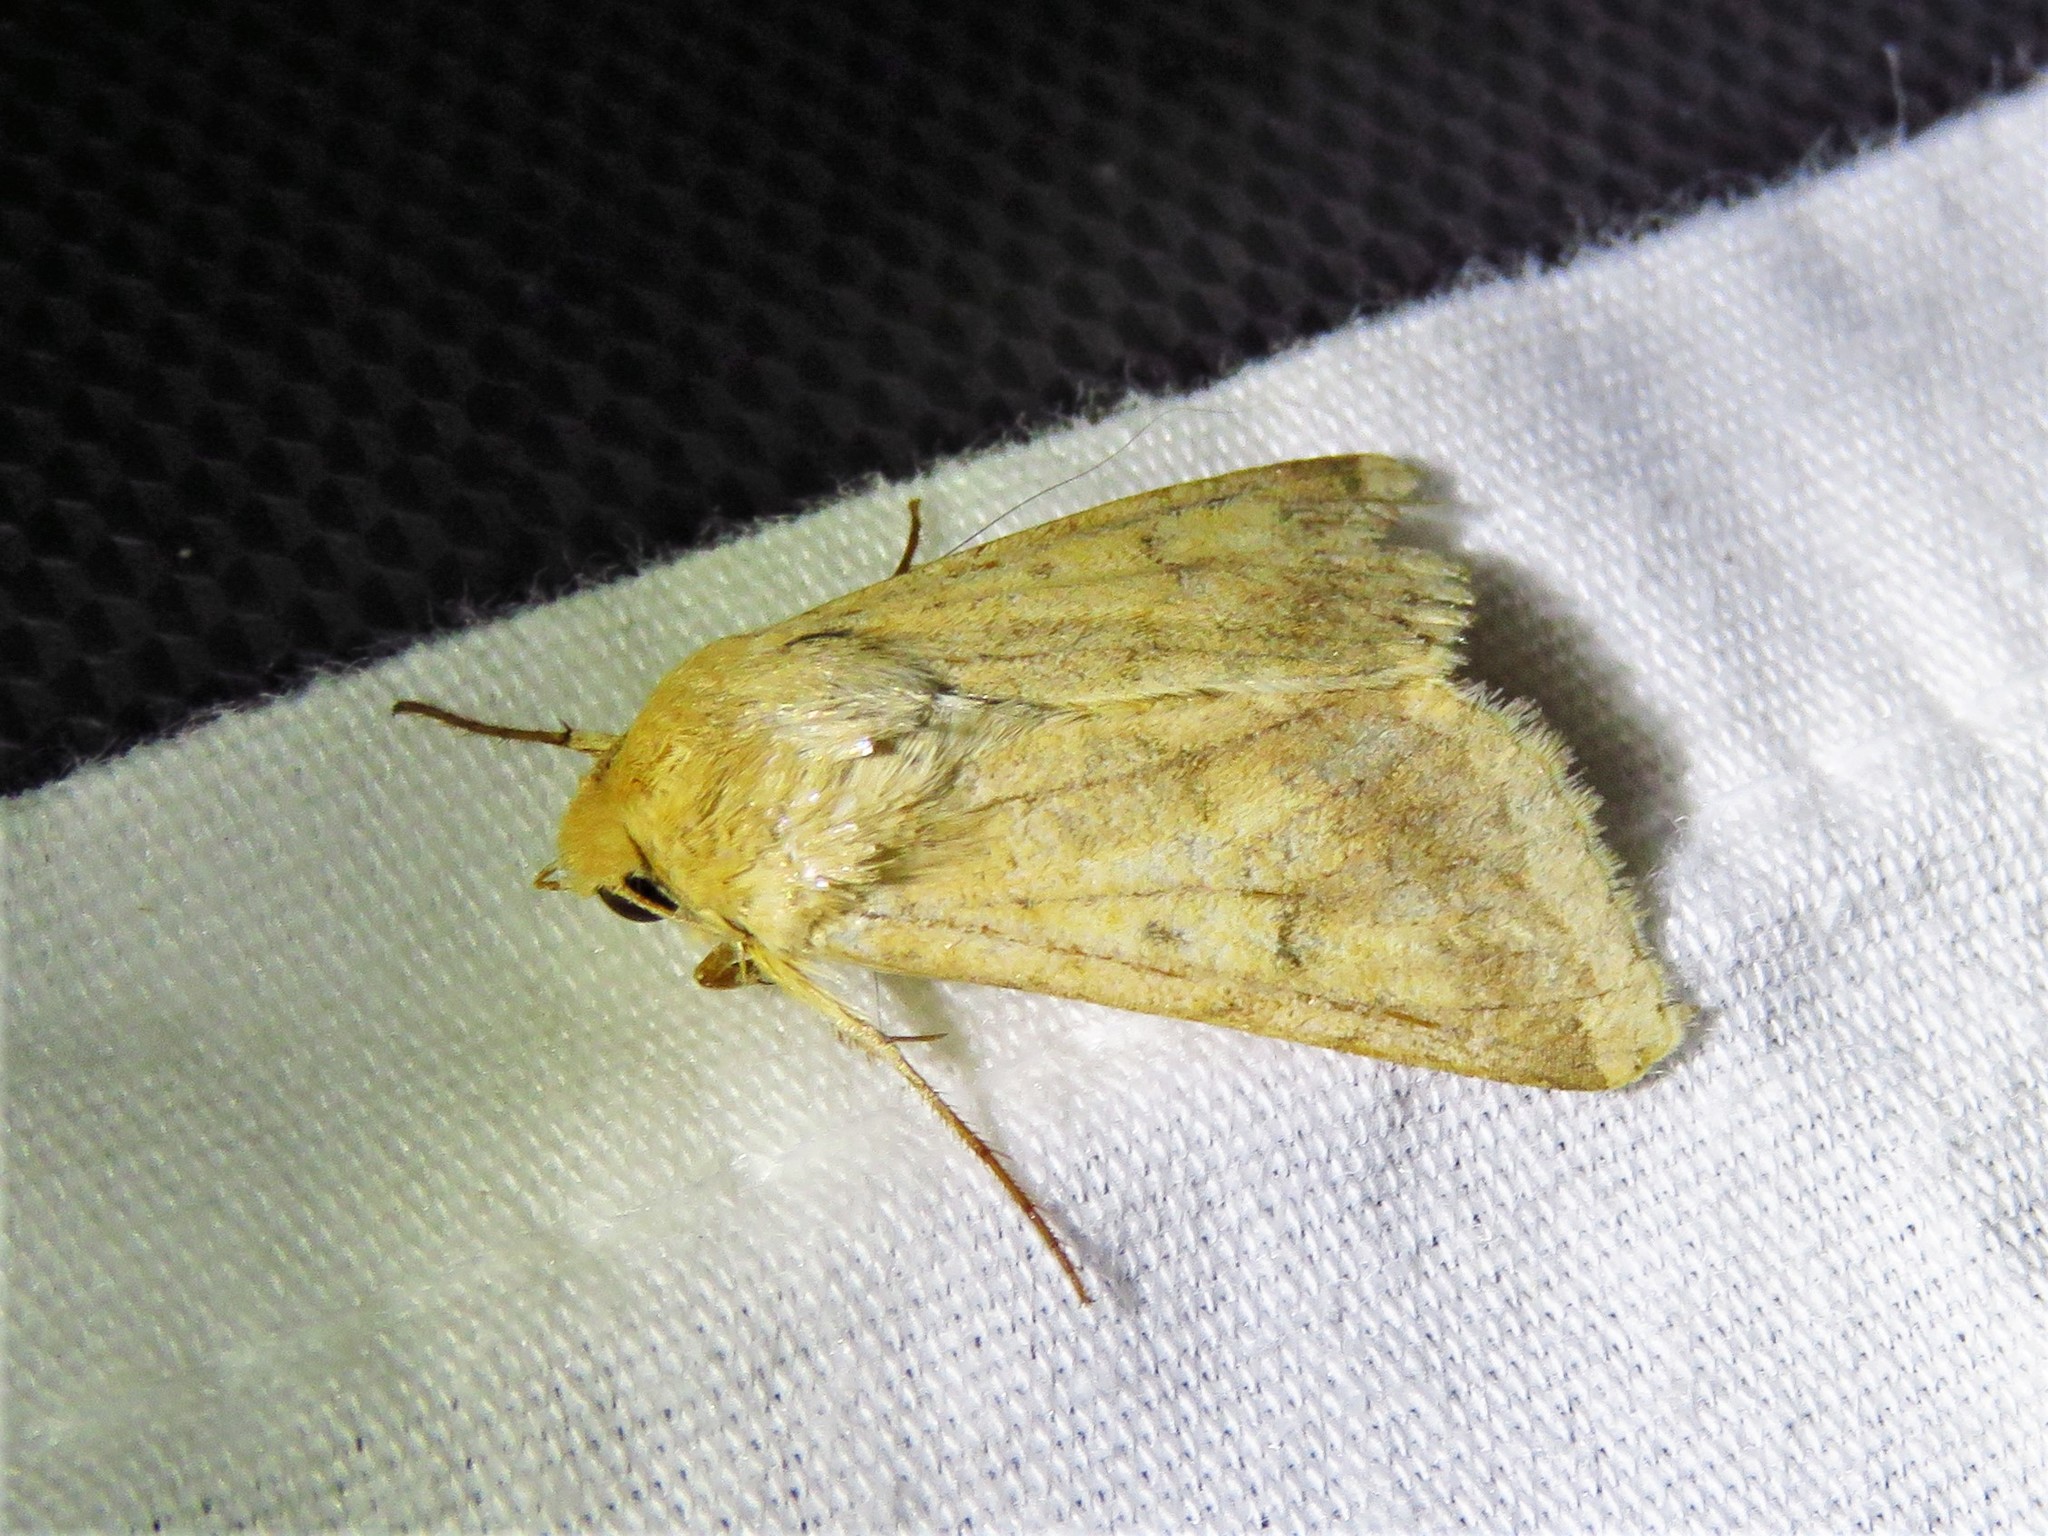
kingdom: Animalia
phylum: Arthropoda
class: Insecta
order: Lepidoptera
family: Noctuidae
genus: Helicoverpa
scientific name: Helicoverpa zea
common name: Bollworm
